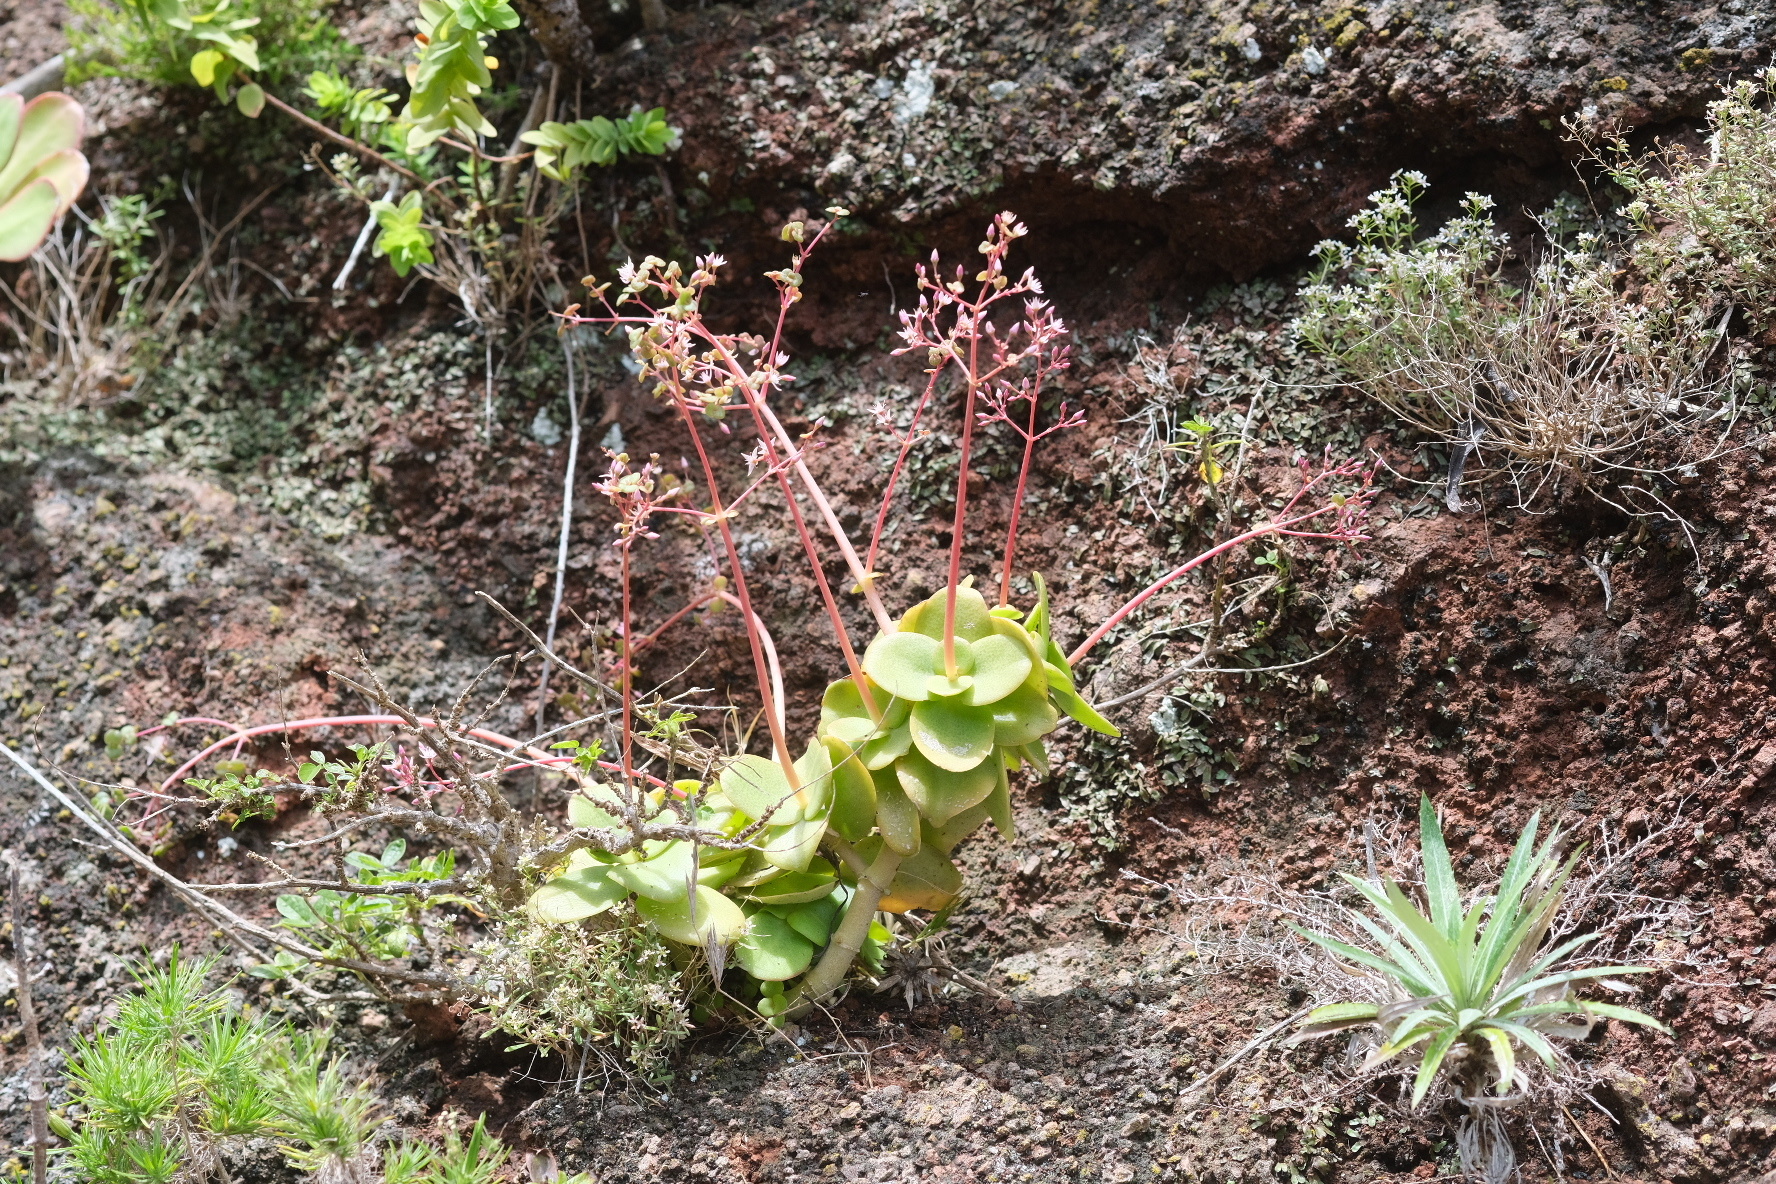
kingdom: Plantae
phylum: Tracheophyta
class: Magnoliopsida
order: Saxifragales
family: Crassulaceae
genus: Crassula
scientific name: Crassula multicava
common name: Cape province pygmyweed
